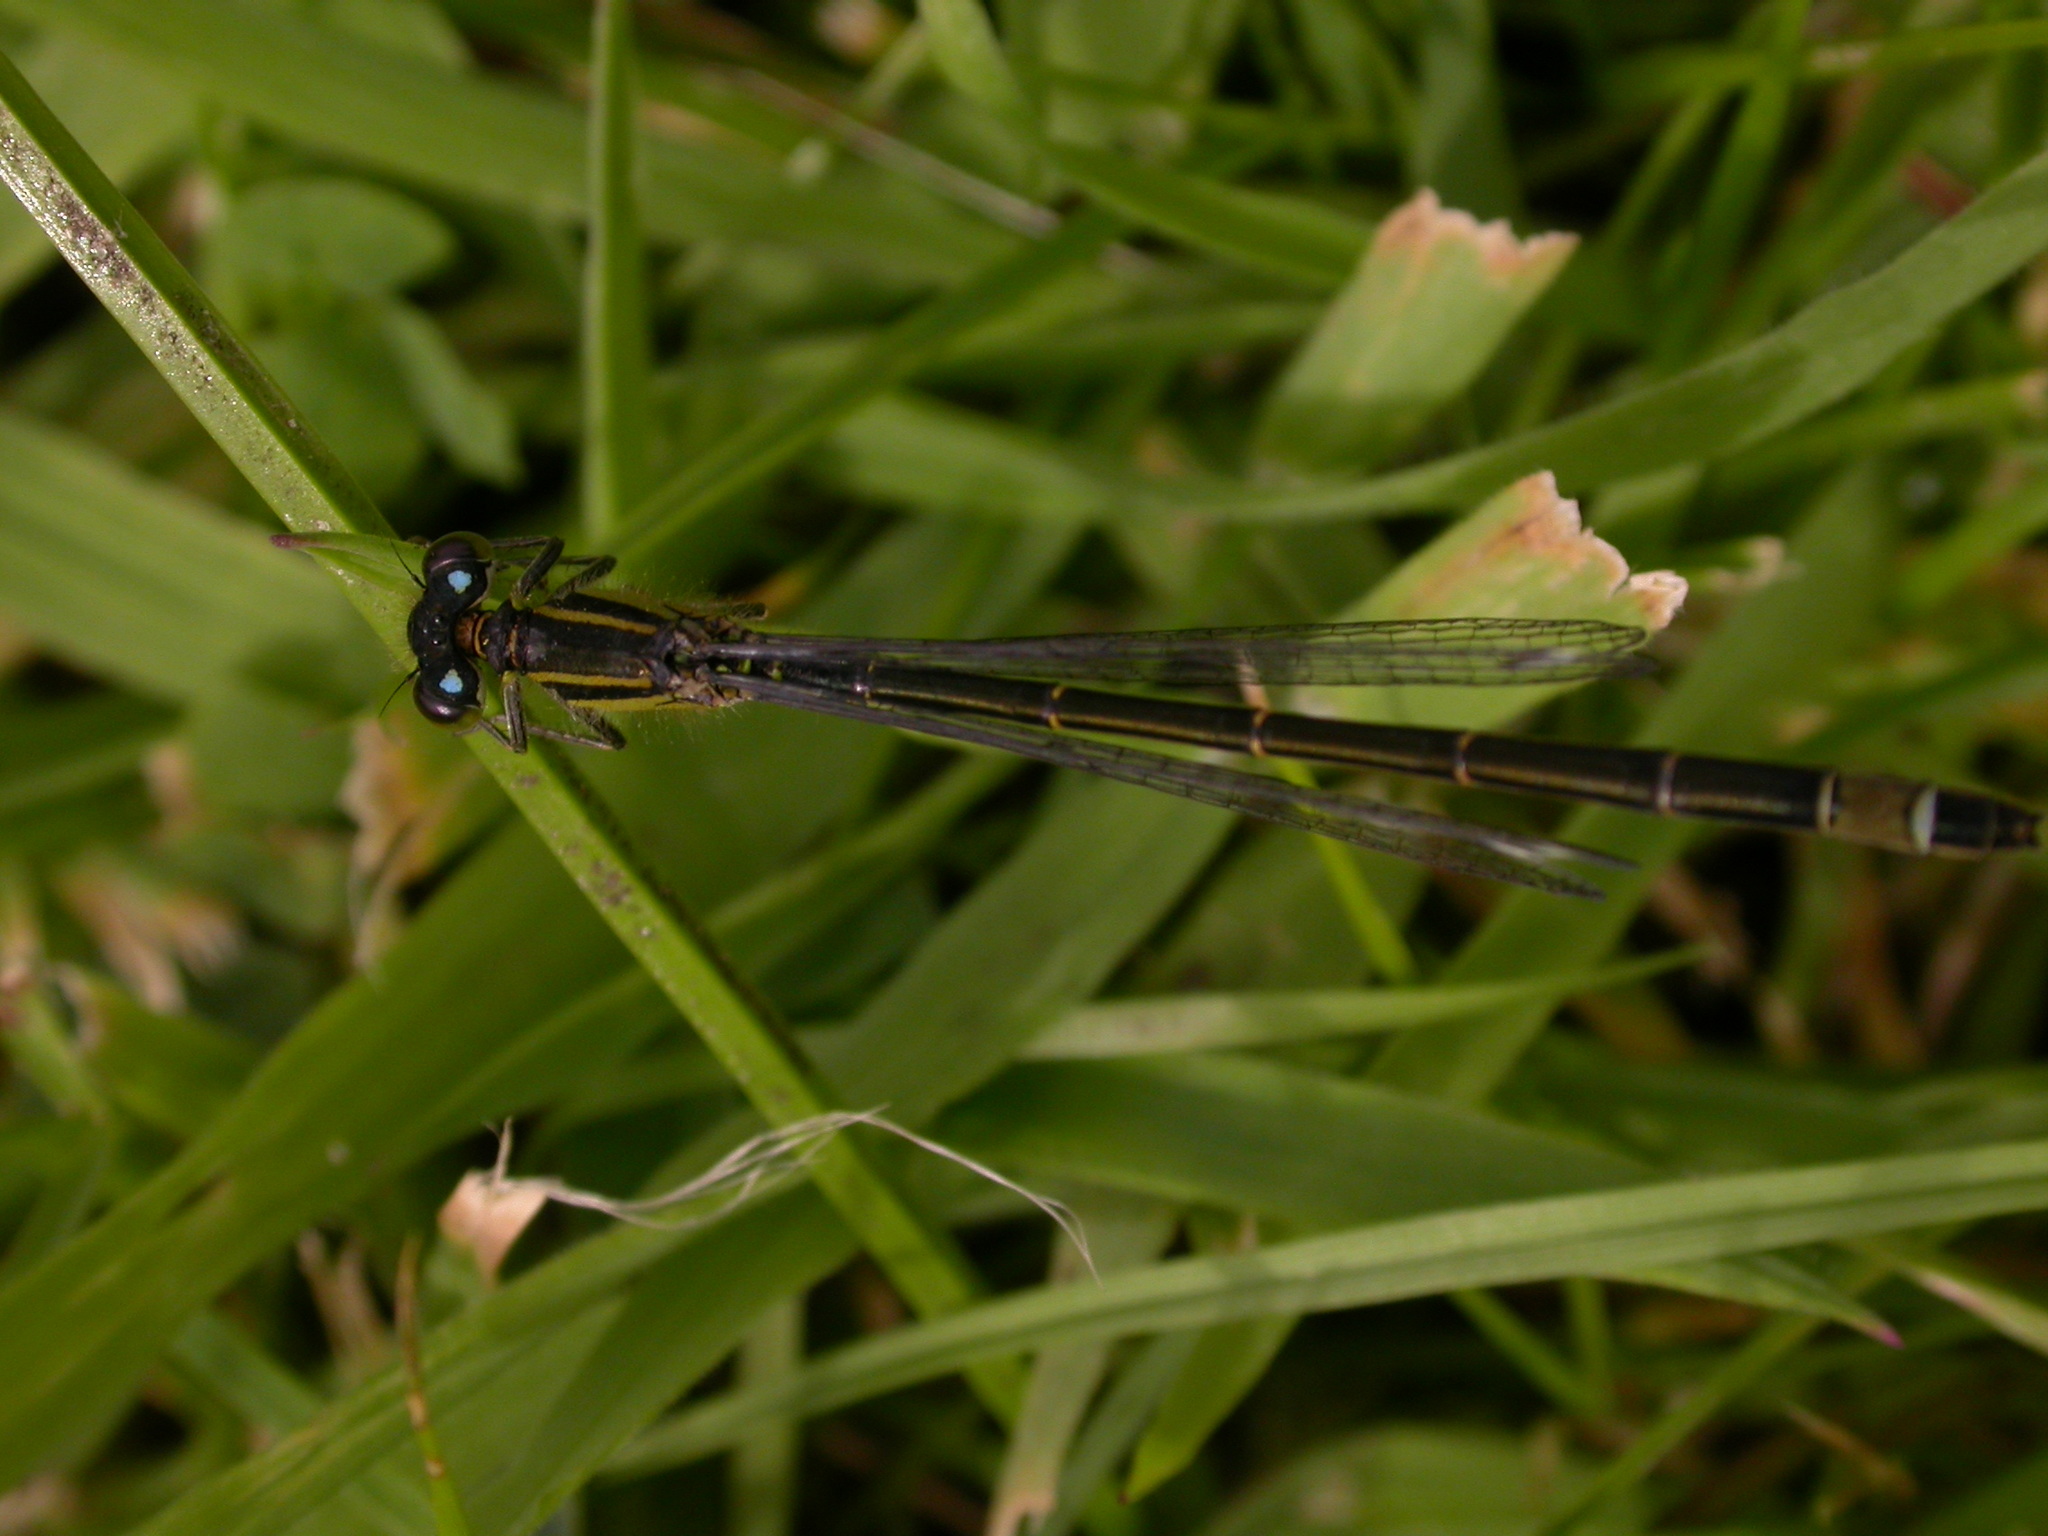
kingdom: Animalia
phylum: Arthropoda
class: Insecta
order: Odonata
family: Coenagrionidae
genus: Ischnura
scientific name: Ischnura elegans
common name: Blue-tailed damselfly
